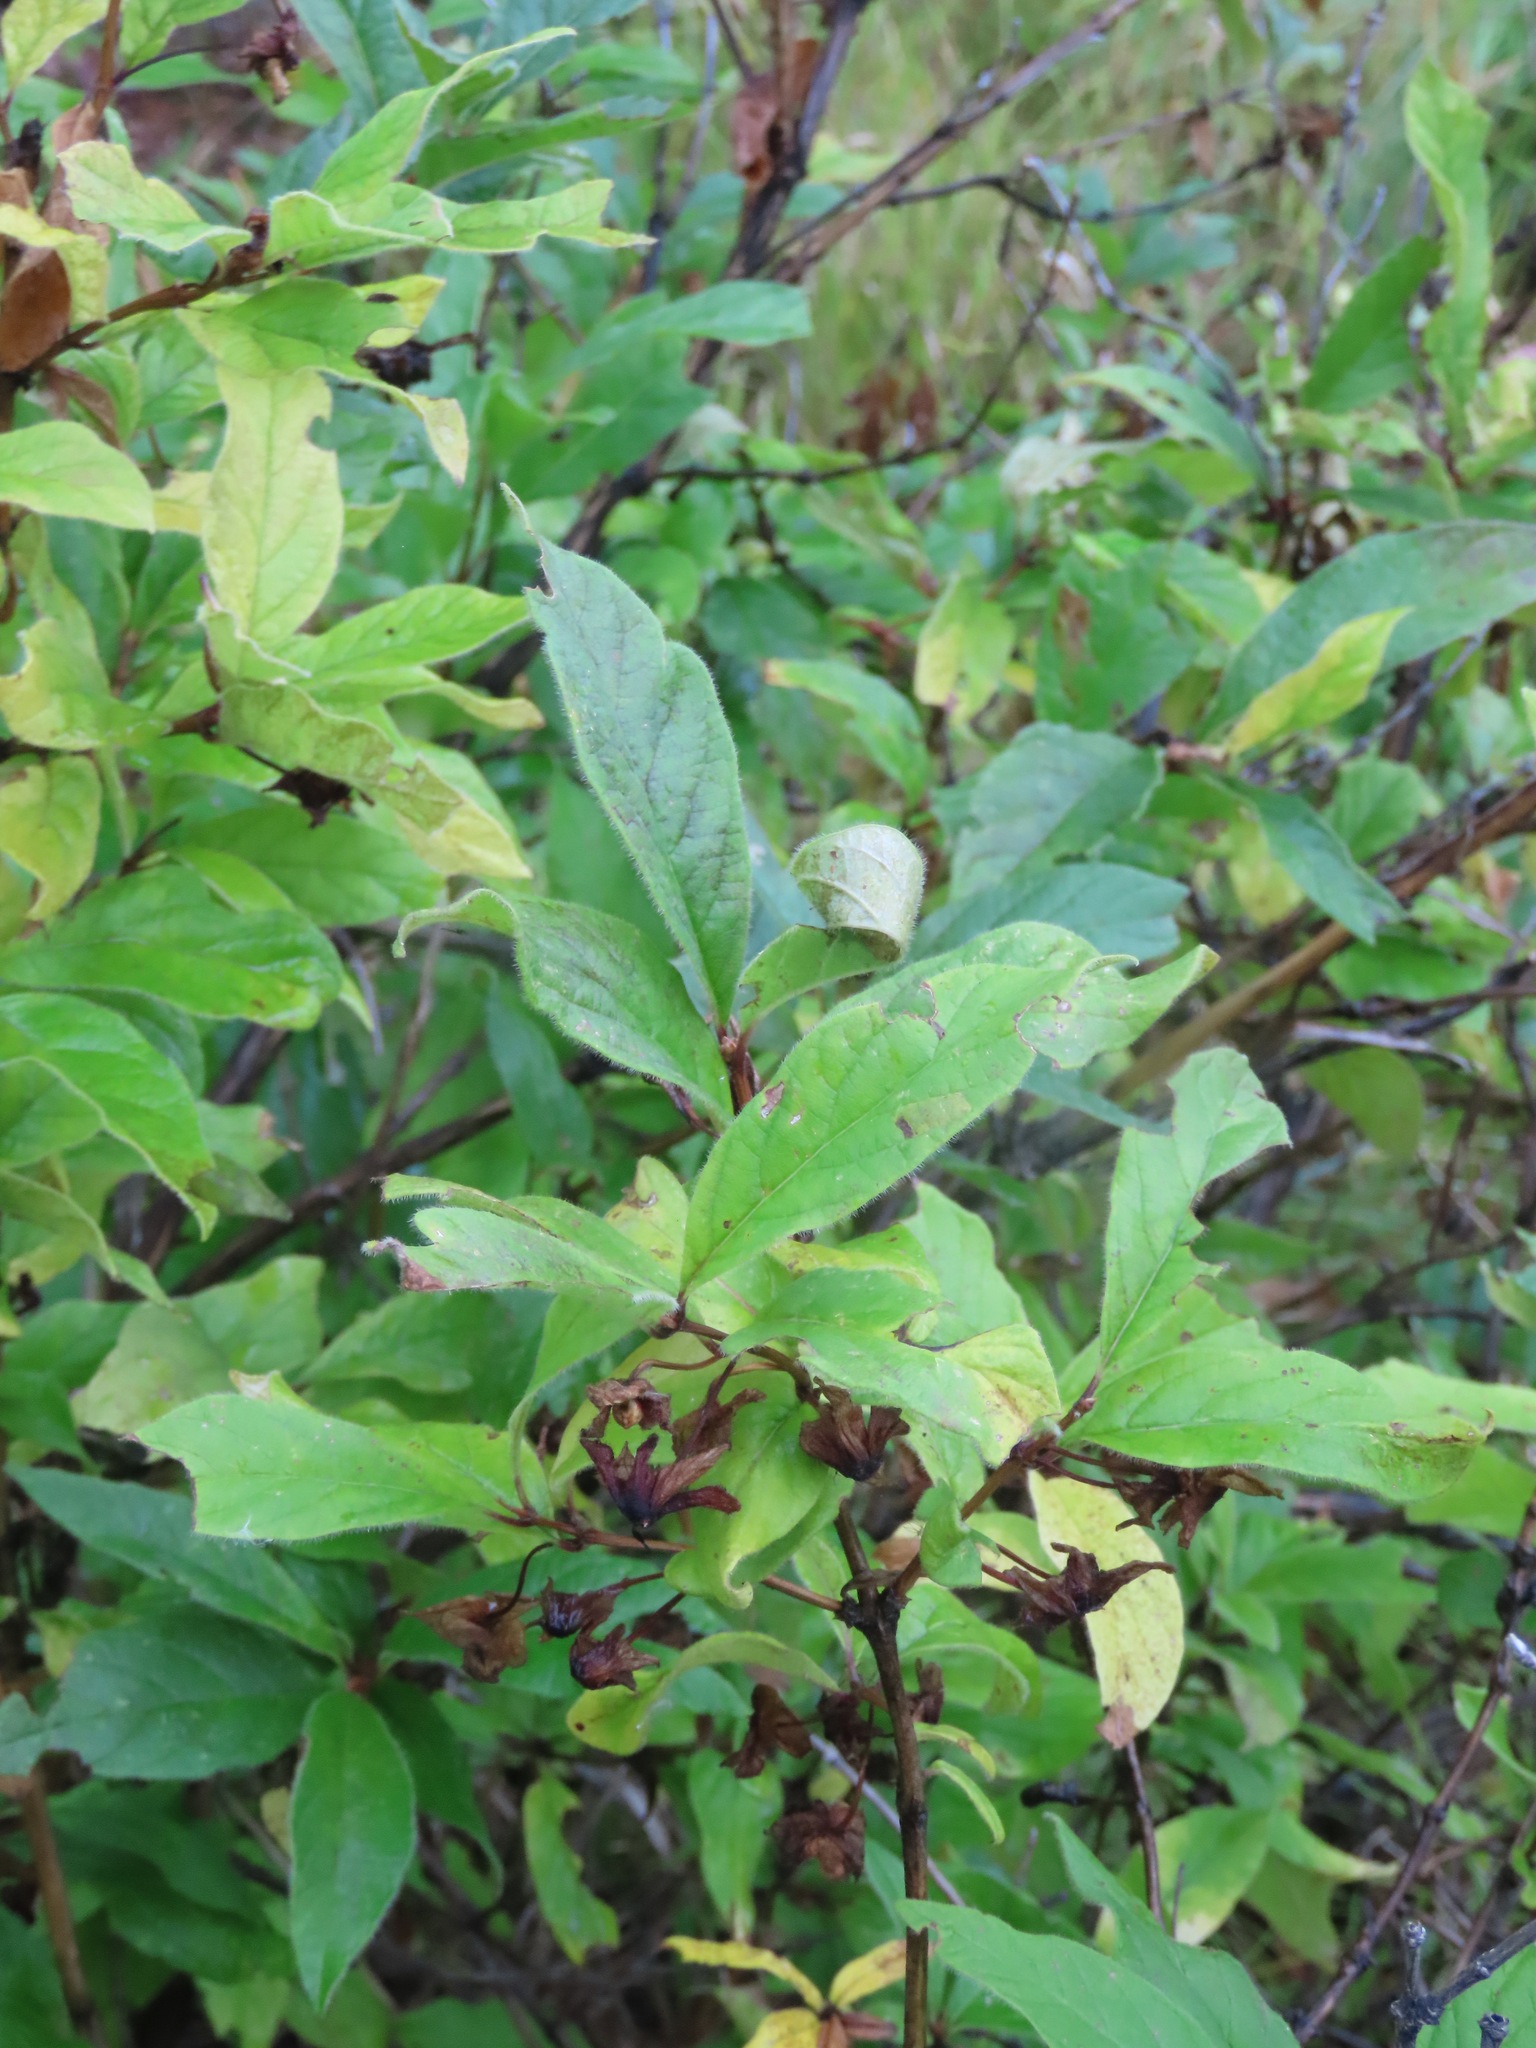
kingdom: Plantae
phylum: Tracheophyta
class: Magnoliopsida
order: Dipsacales
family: Caprifoliaceae
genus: Lonicera
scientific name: Lonicera involucrata
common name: Californian honeysuckle
